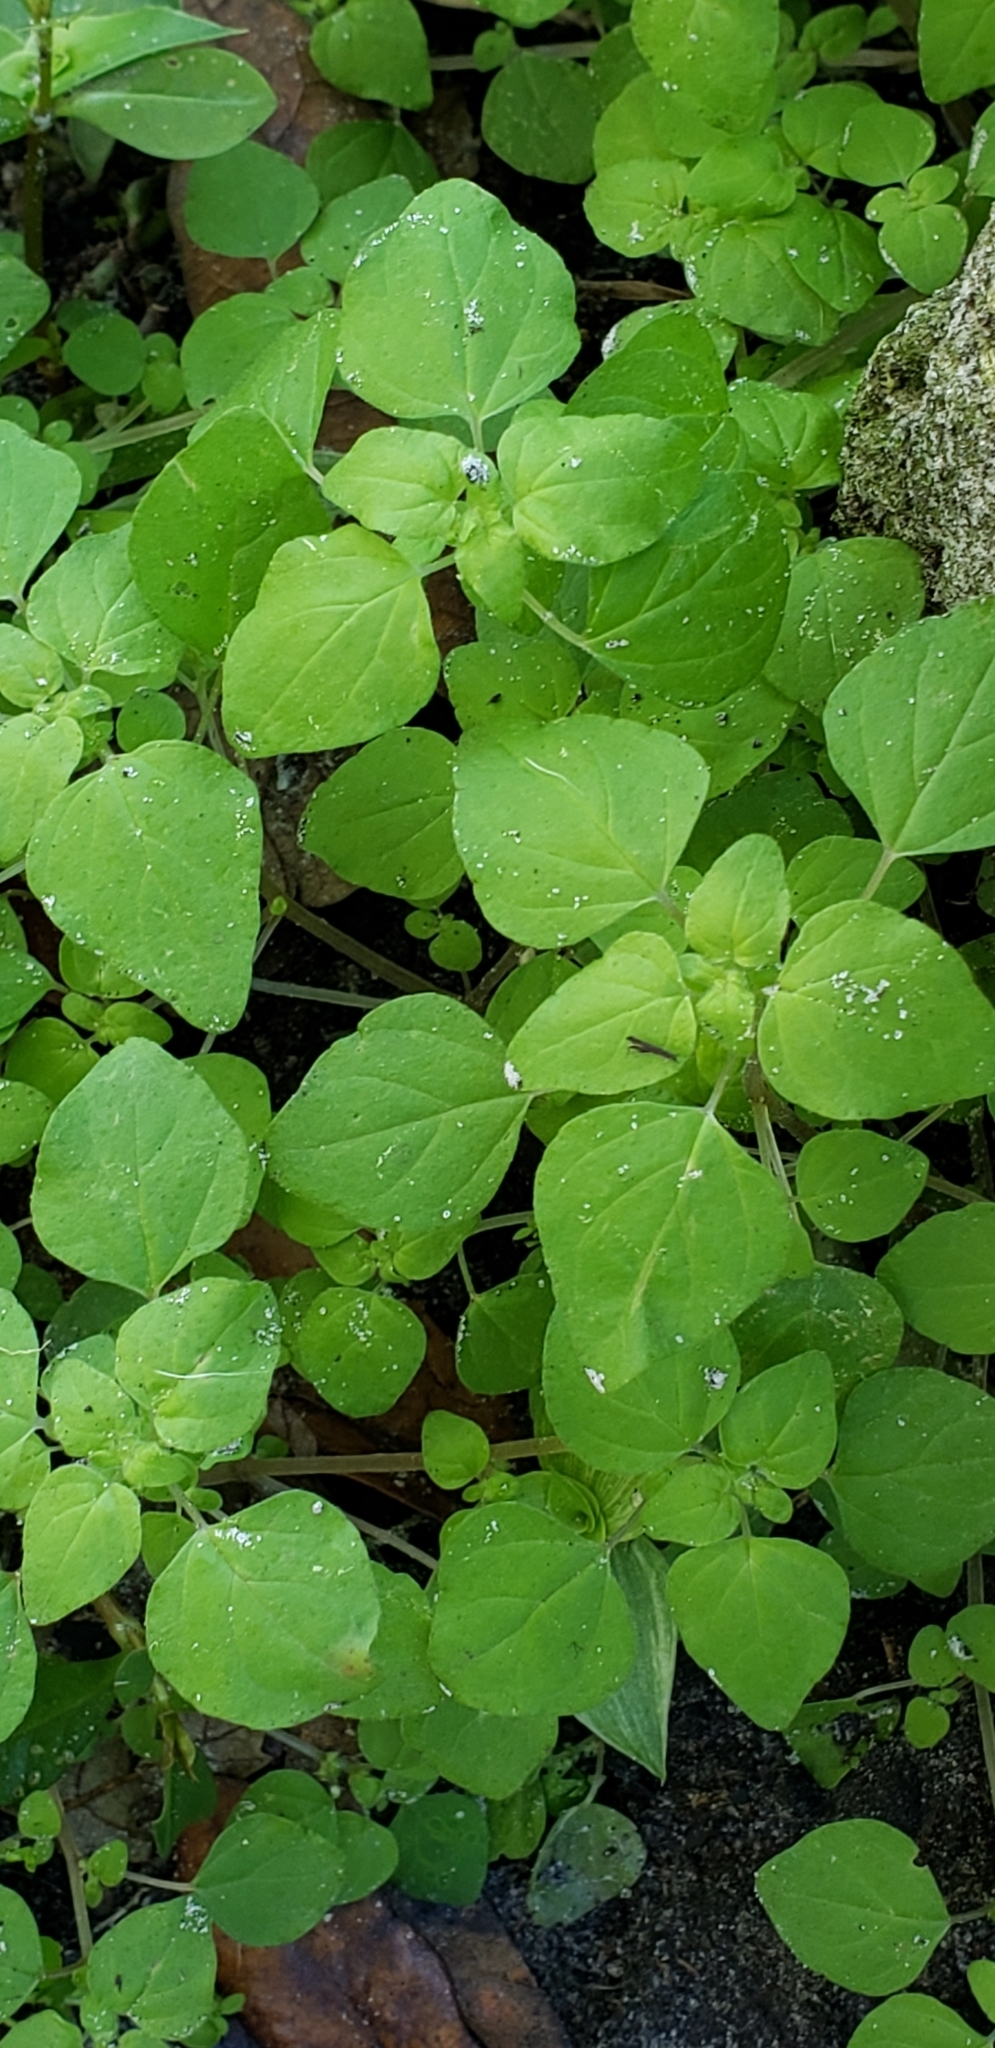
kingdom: Plantae
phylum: Tracheophyta
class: Magnoliopsida
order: Rosales
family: Urticaceae
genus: Parietaria
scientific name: Parietaria floridana
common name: Florida pellitory
